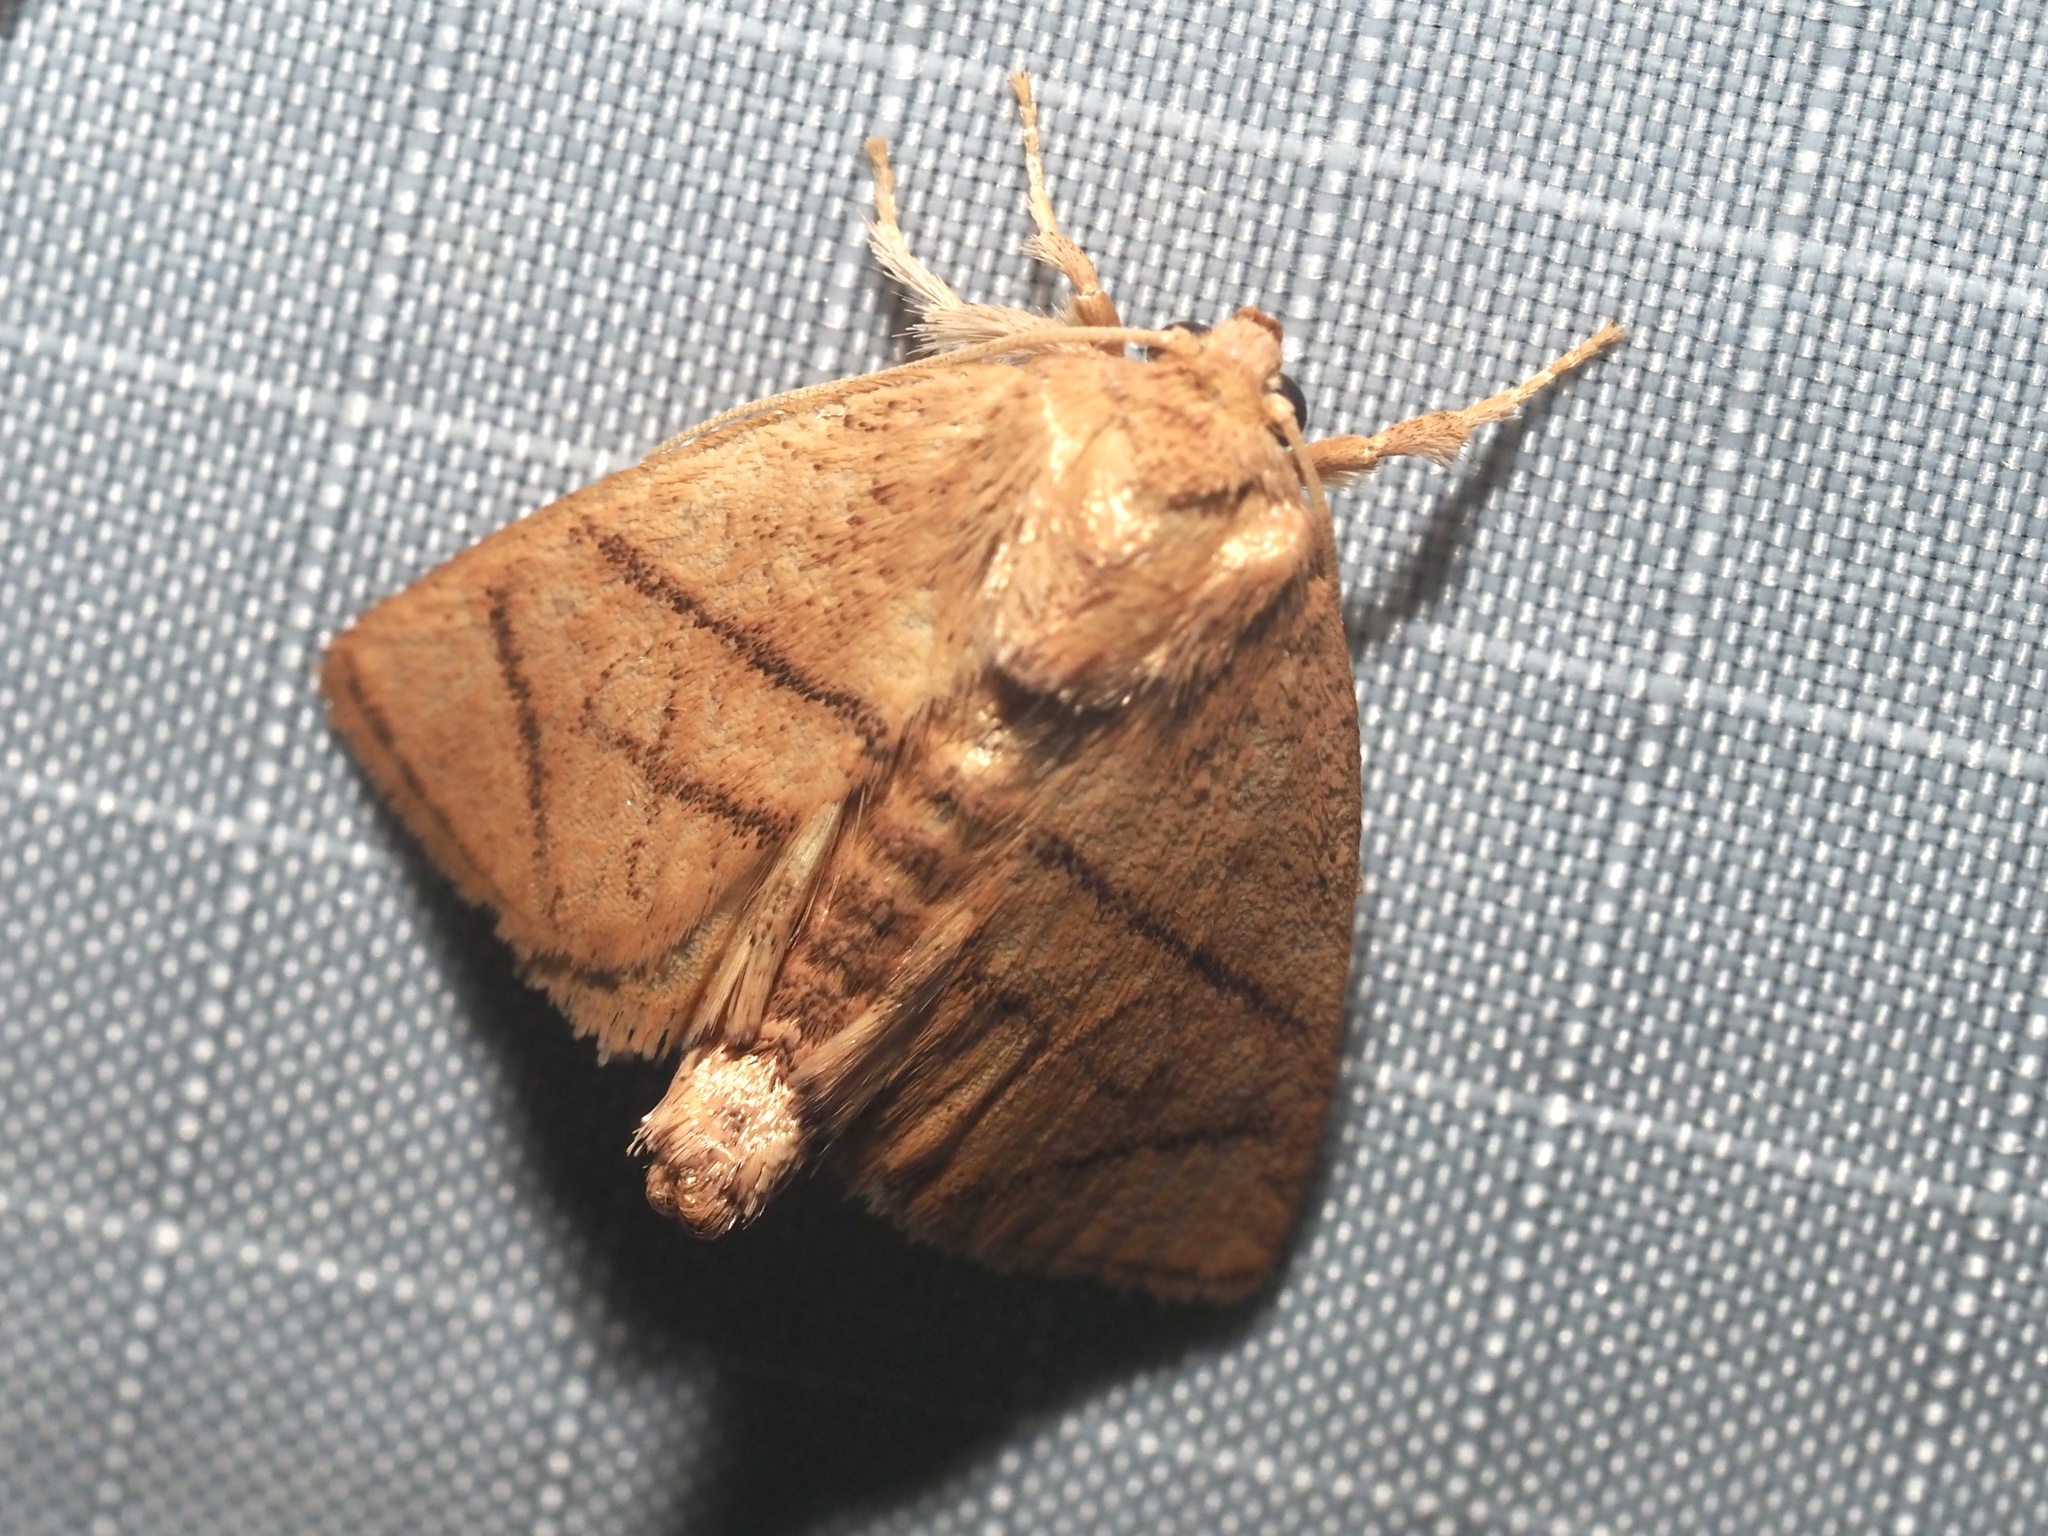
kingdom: Animalia
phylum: Arthropoda
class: Insecta
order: Lepidoptera
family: Limacodidae
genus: Apoda
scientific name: Apoda y-inversa
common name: Yellow-collared slug moth
